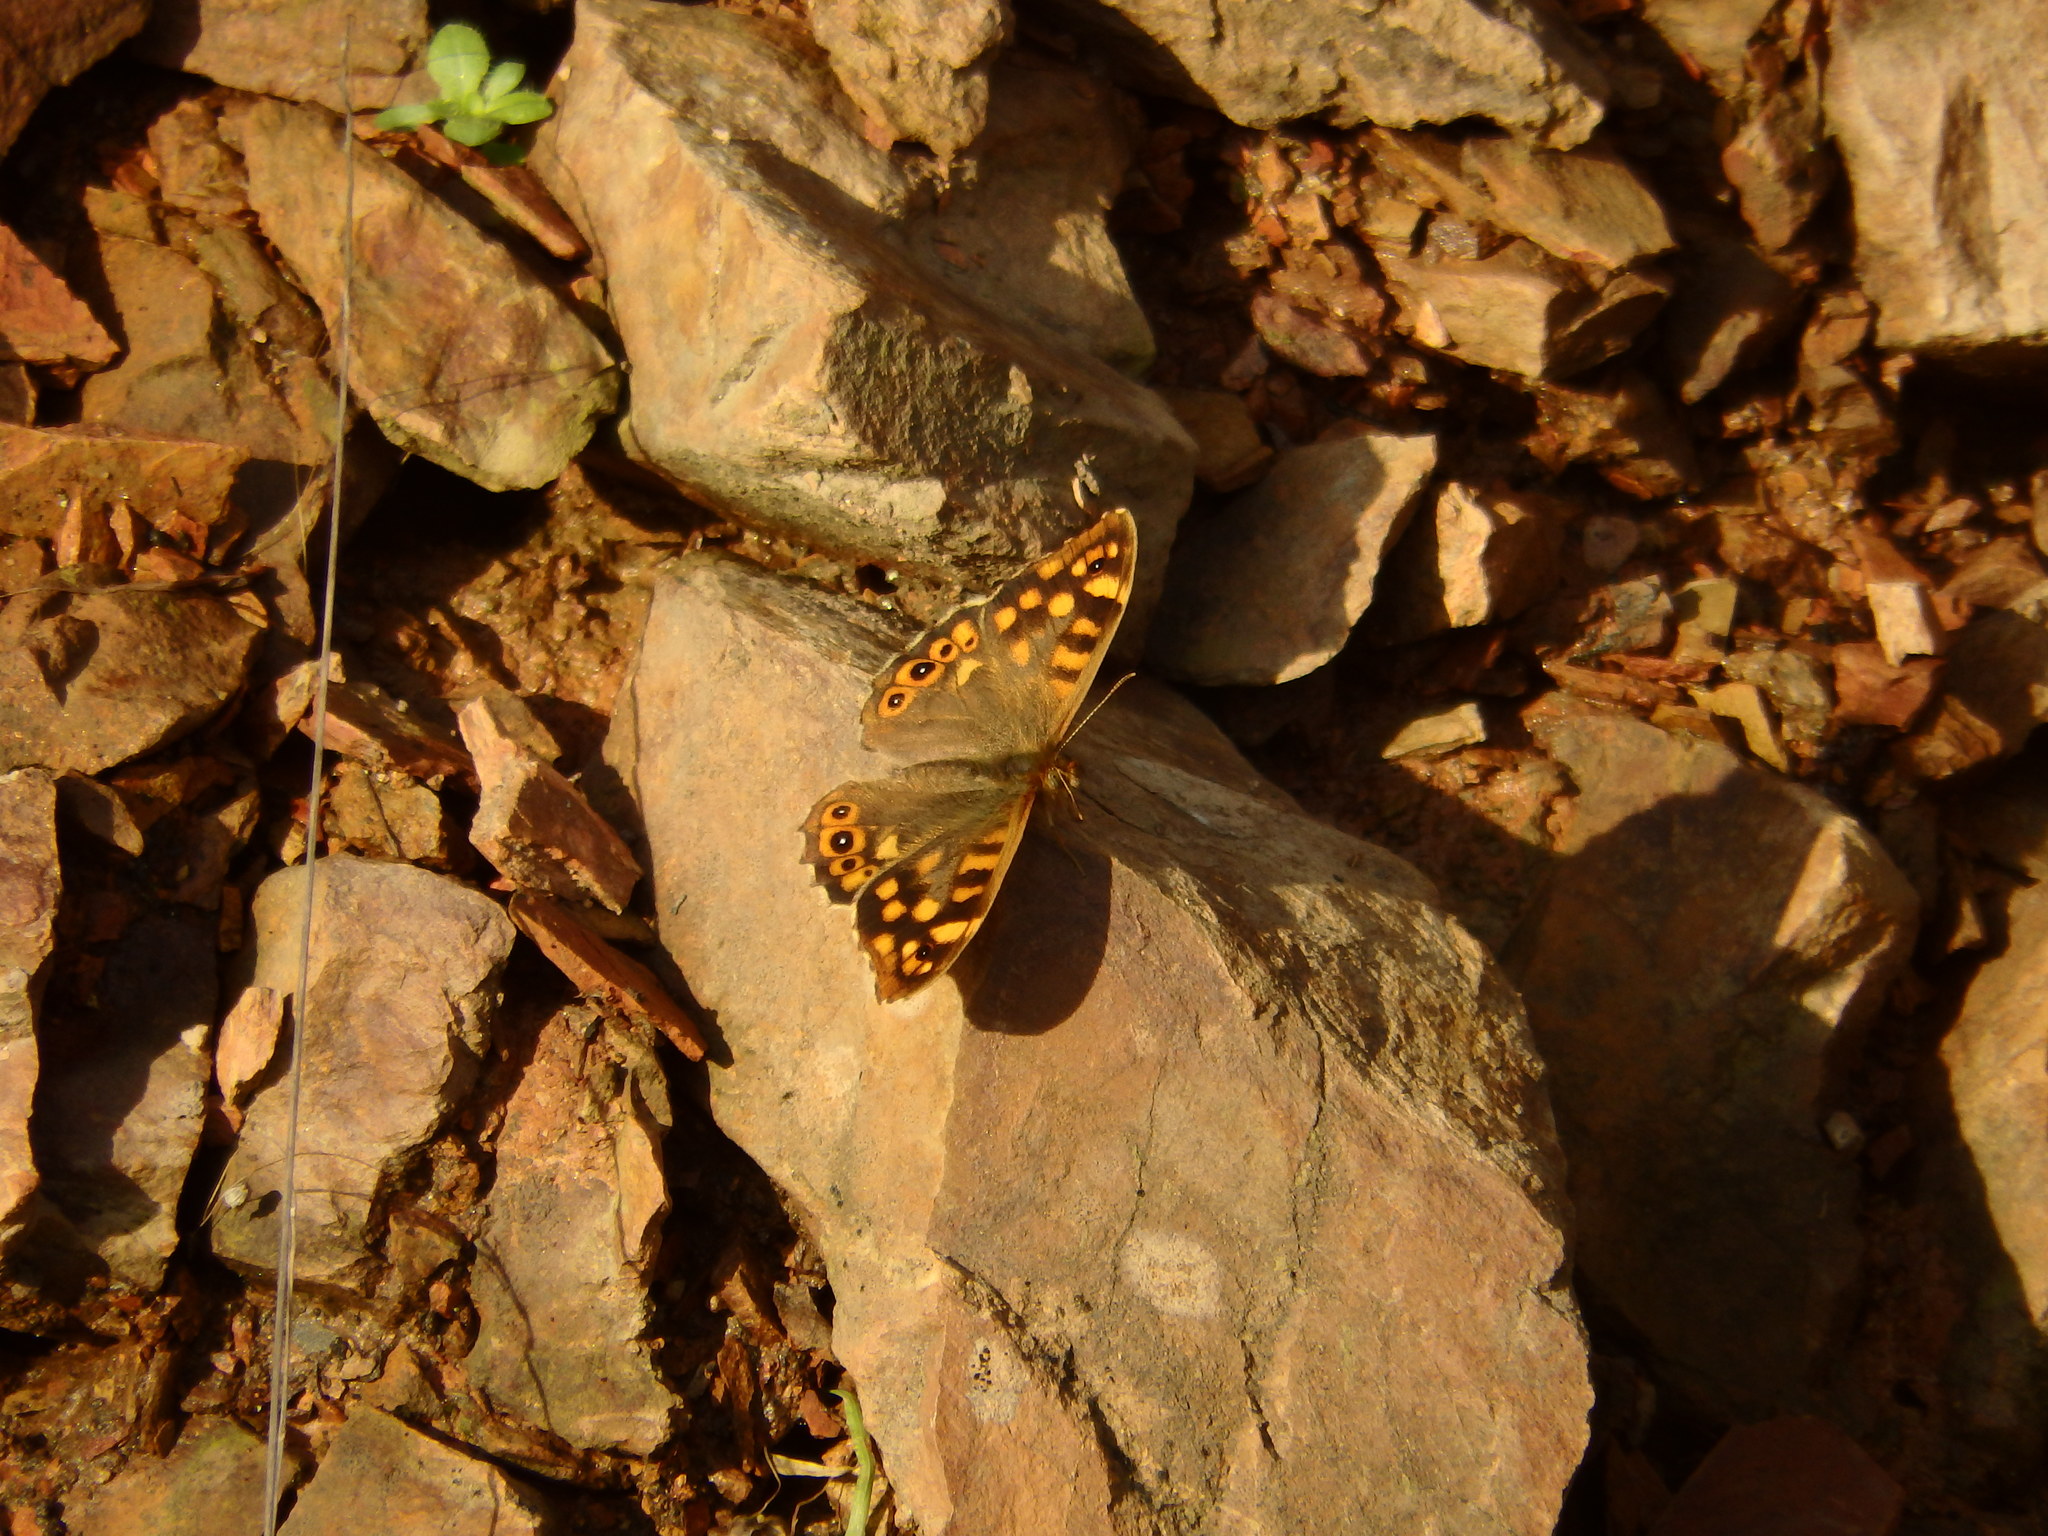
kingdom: Animalia
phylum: Arthropoda
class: Insecta
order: Lepidoptera
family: Nymphalidae
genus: Pararge
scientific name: Pararge aegeria
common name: Speckled wood
